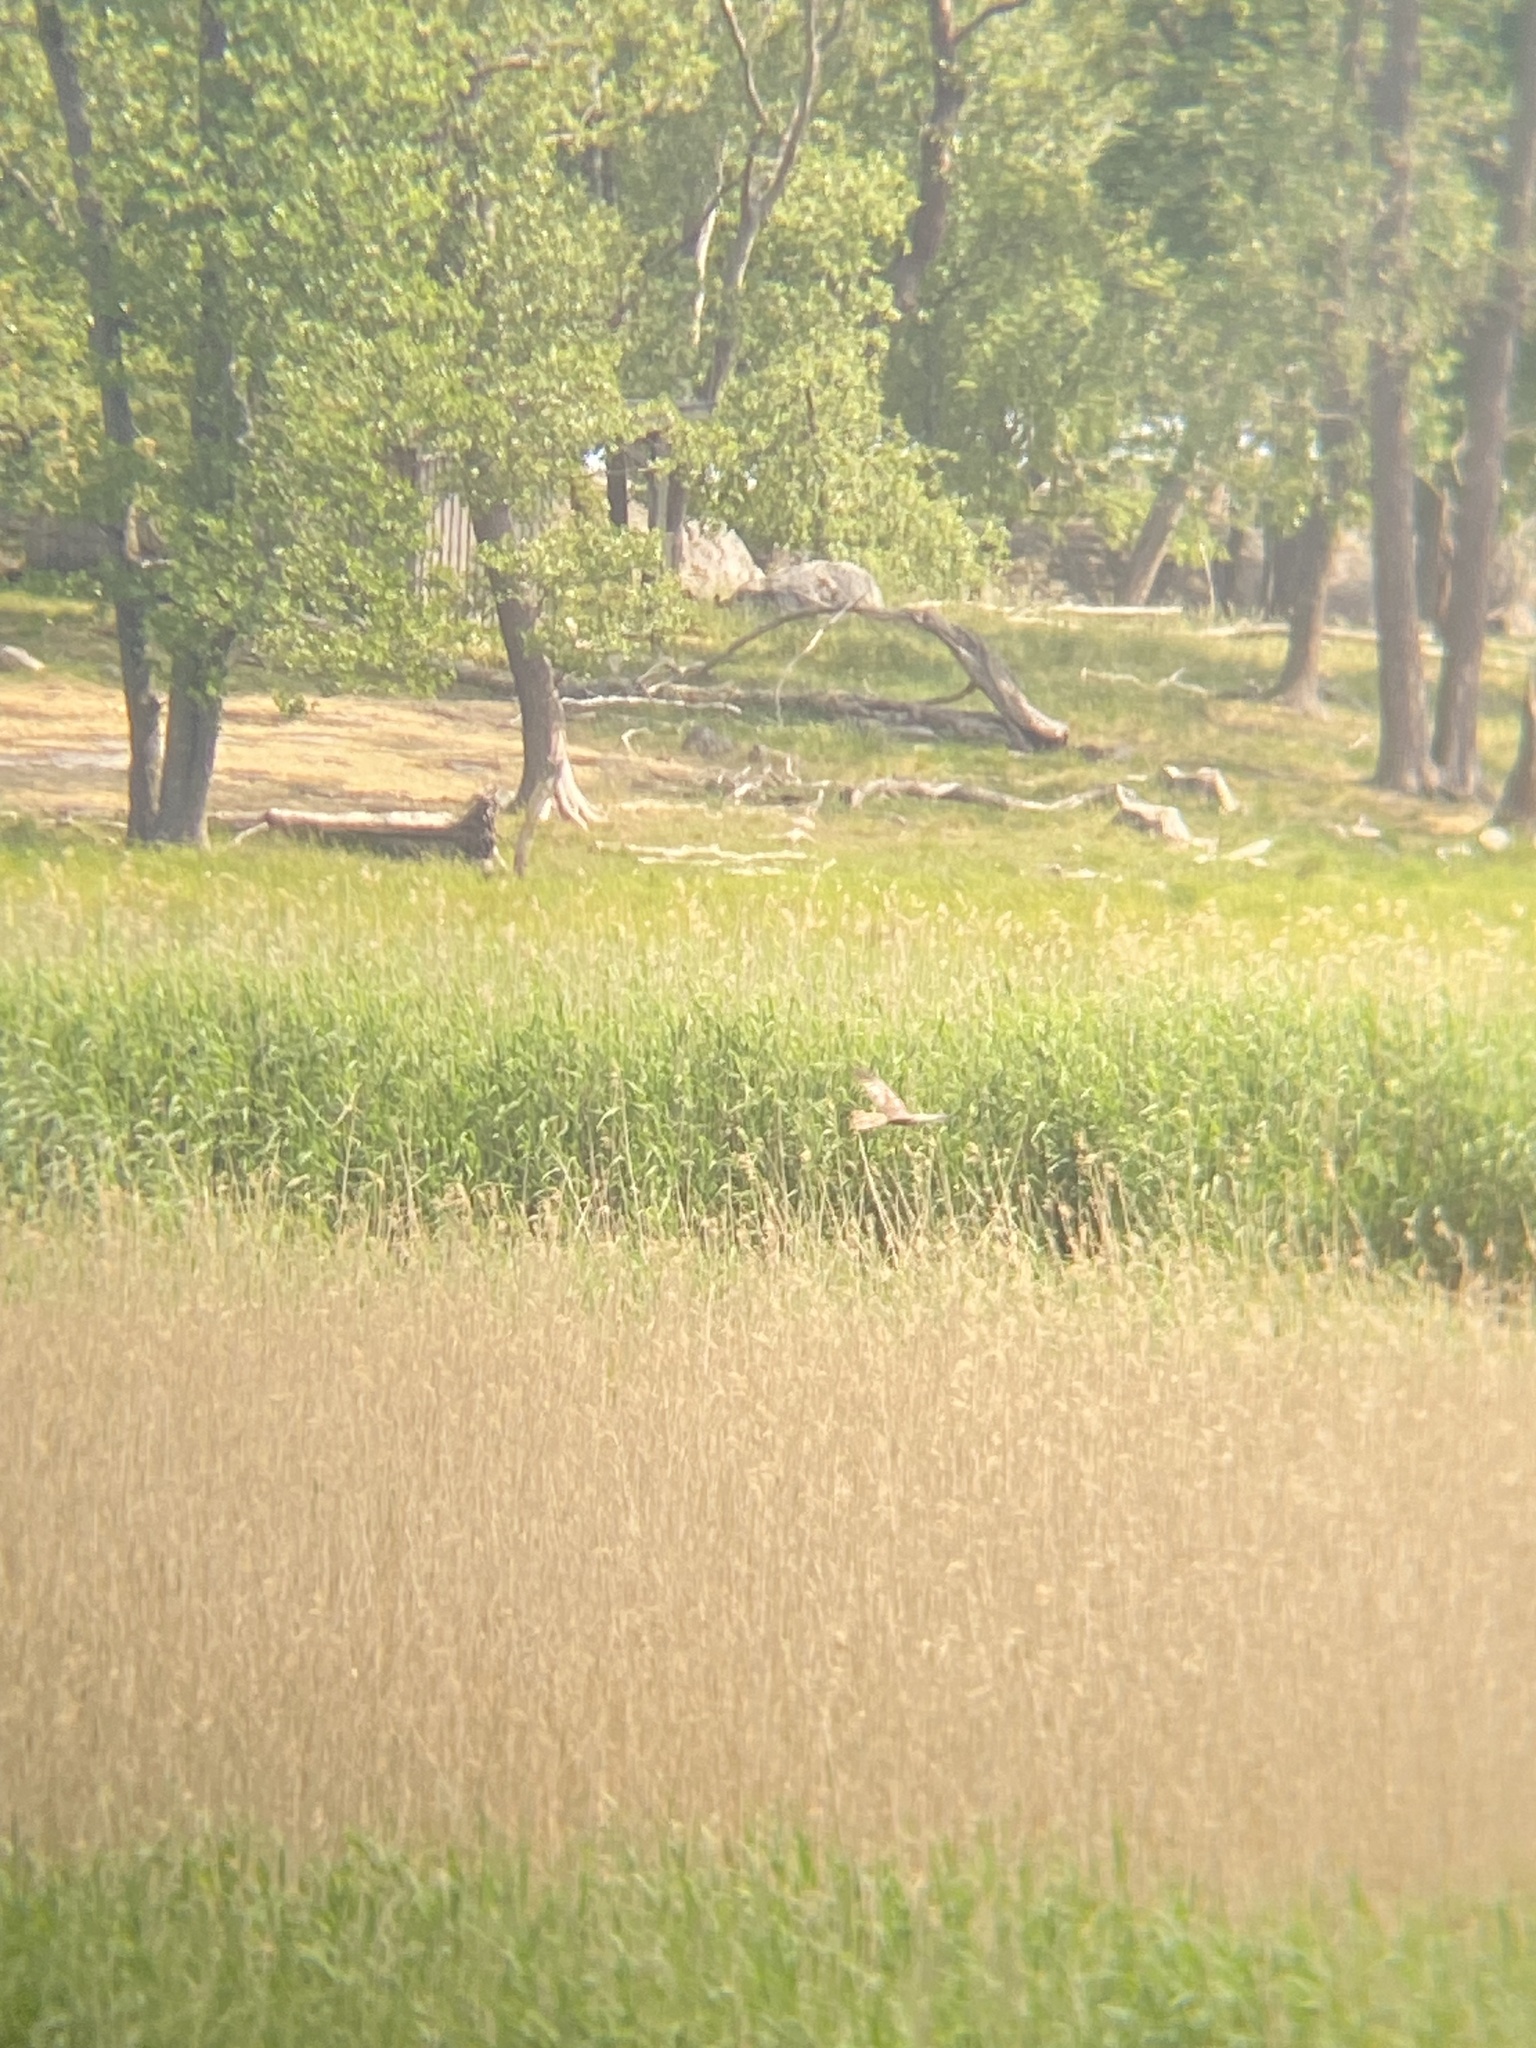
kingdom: Animalia
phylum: Chordata
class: Aves
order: Accipitriformes
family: Accipitridae
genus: Circus
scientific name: Circus aeruginosus
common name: Western marsh harrier
